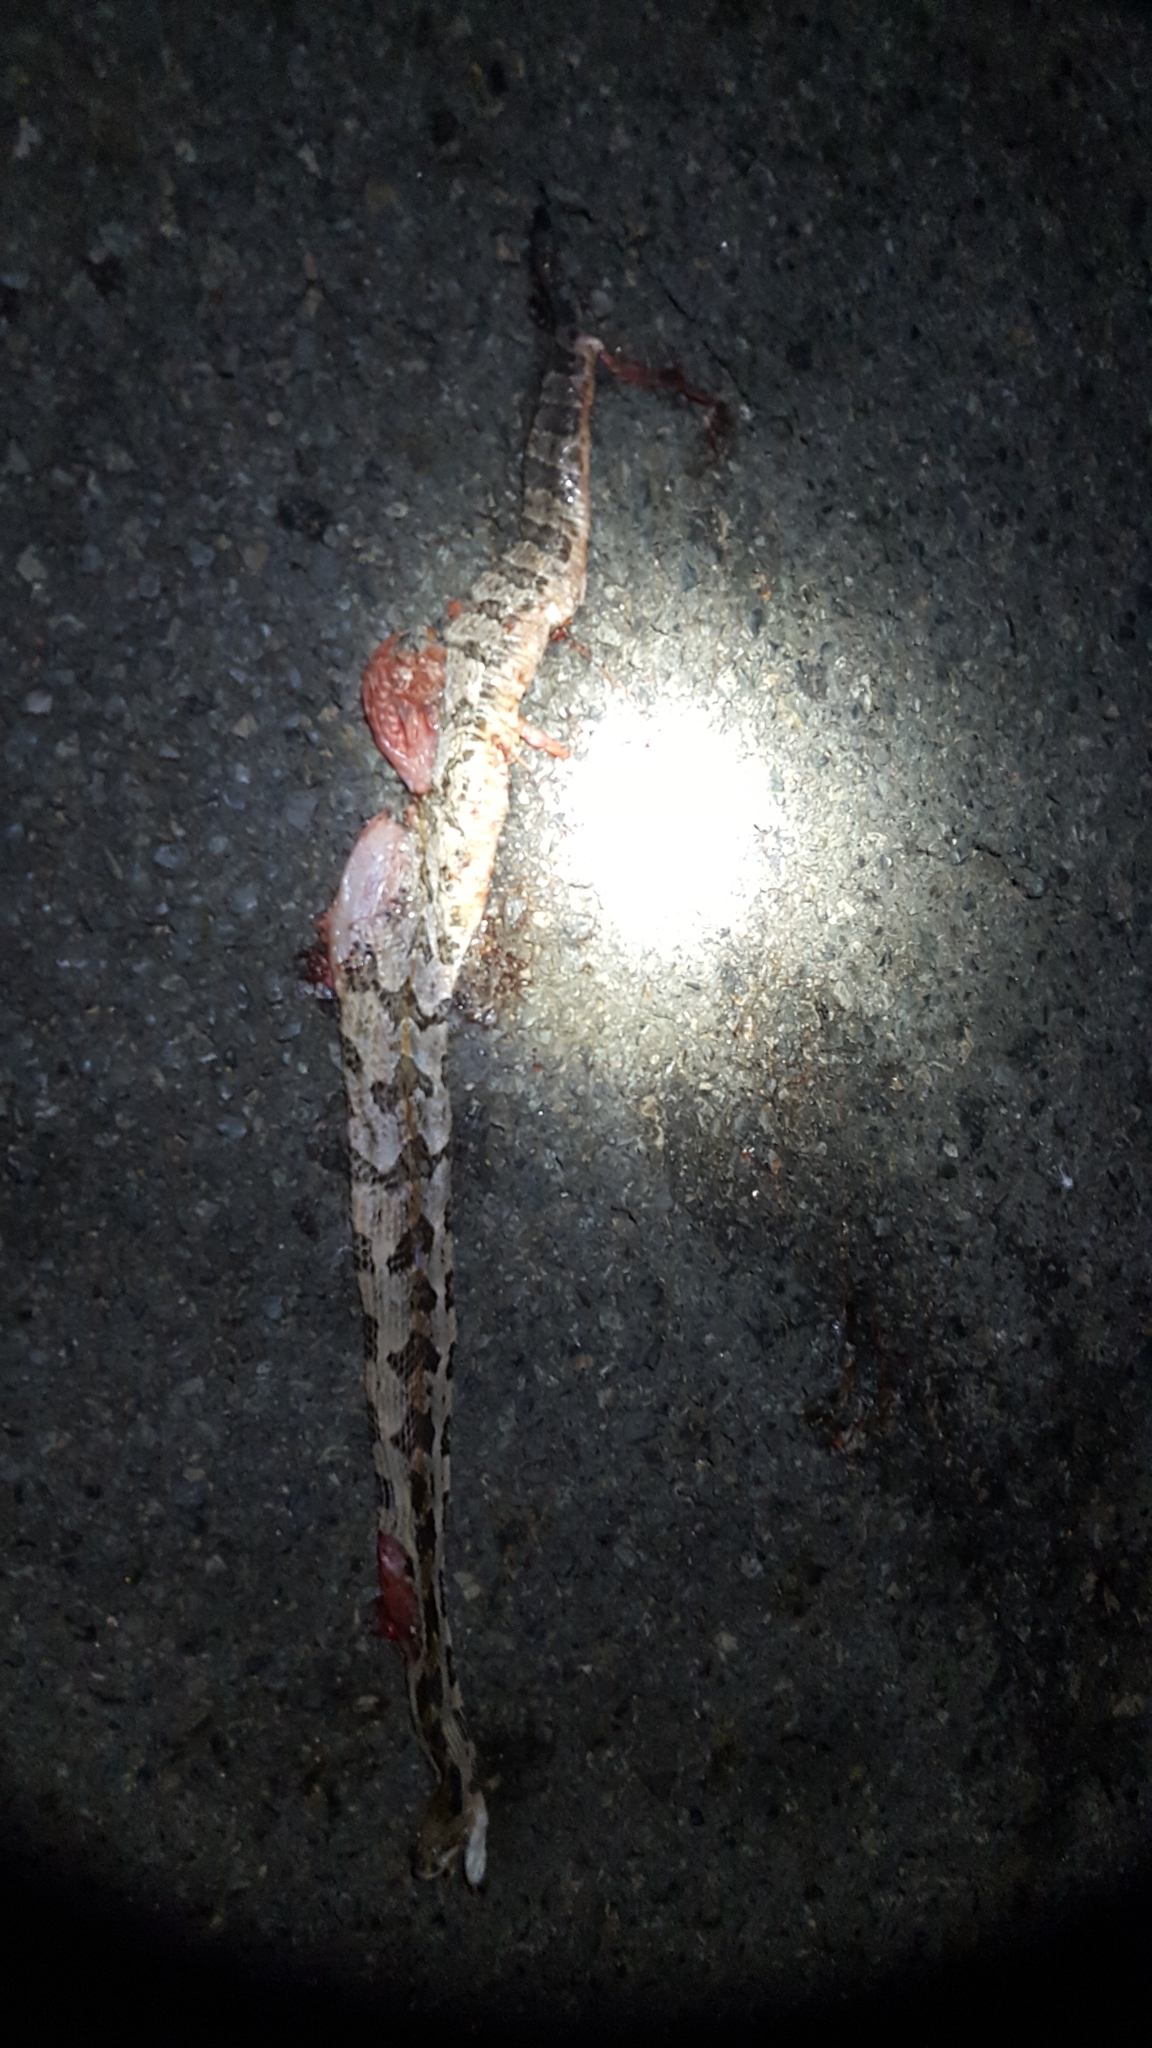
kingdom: Animalia
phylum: Chordata
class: Squamata
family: Viperidae
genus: Crotalus
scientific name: Crotalus horridus
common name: Timber rattlesnake
